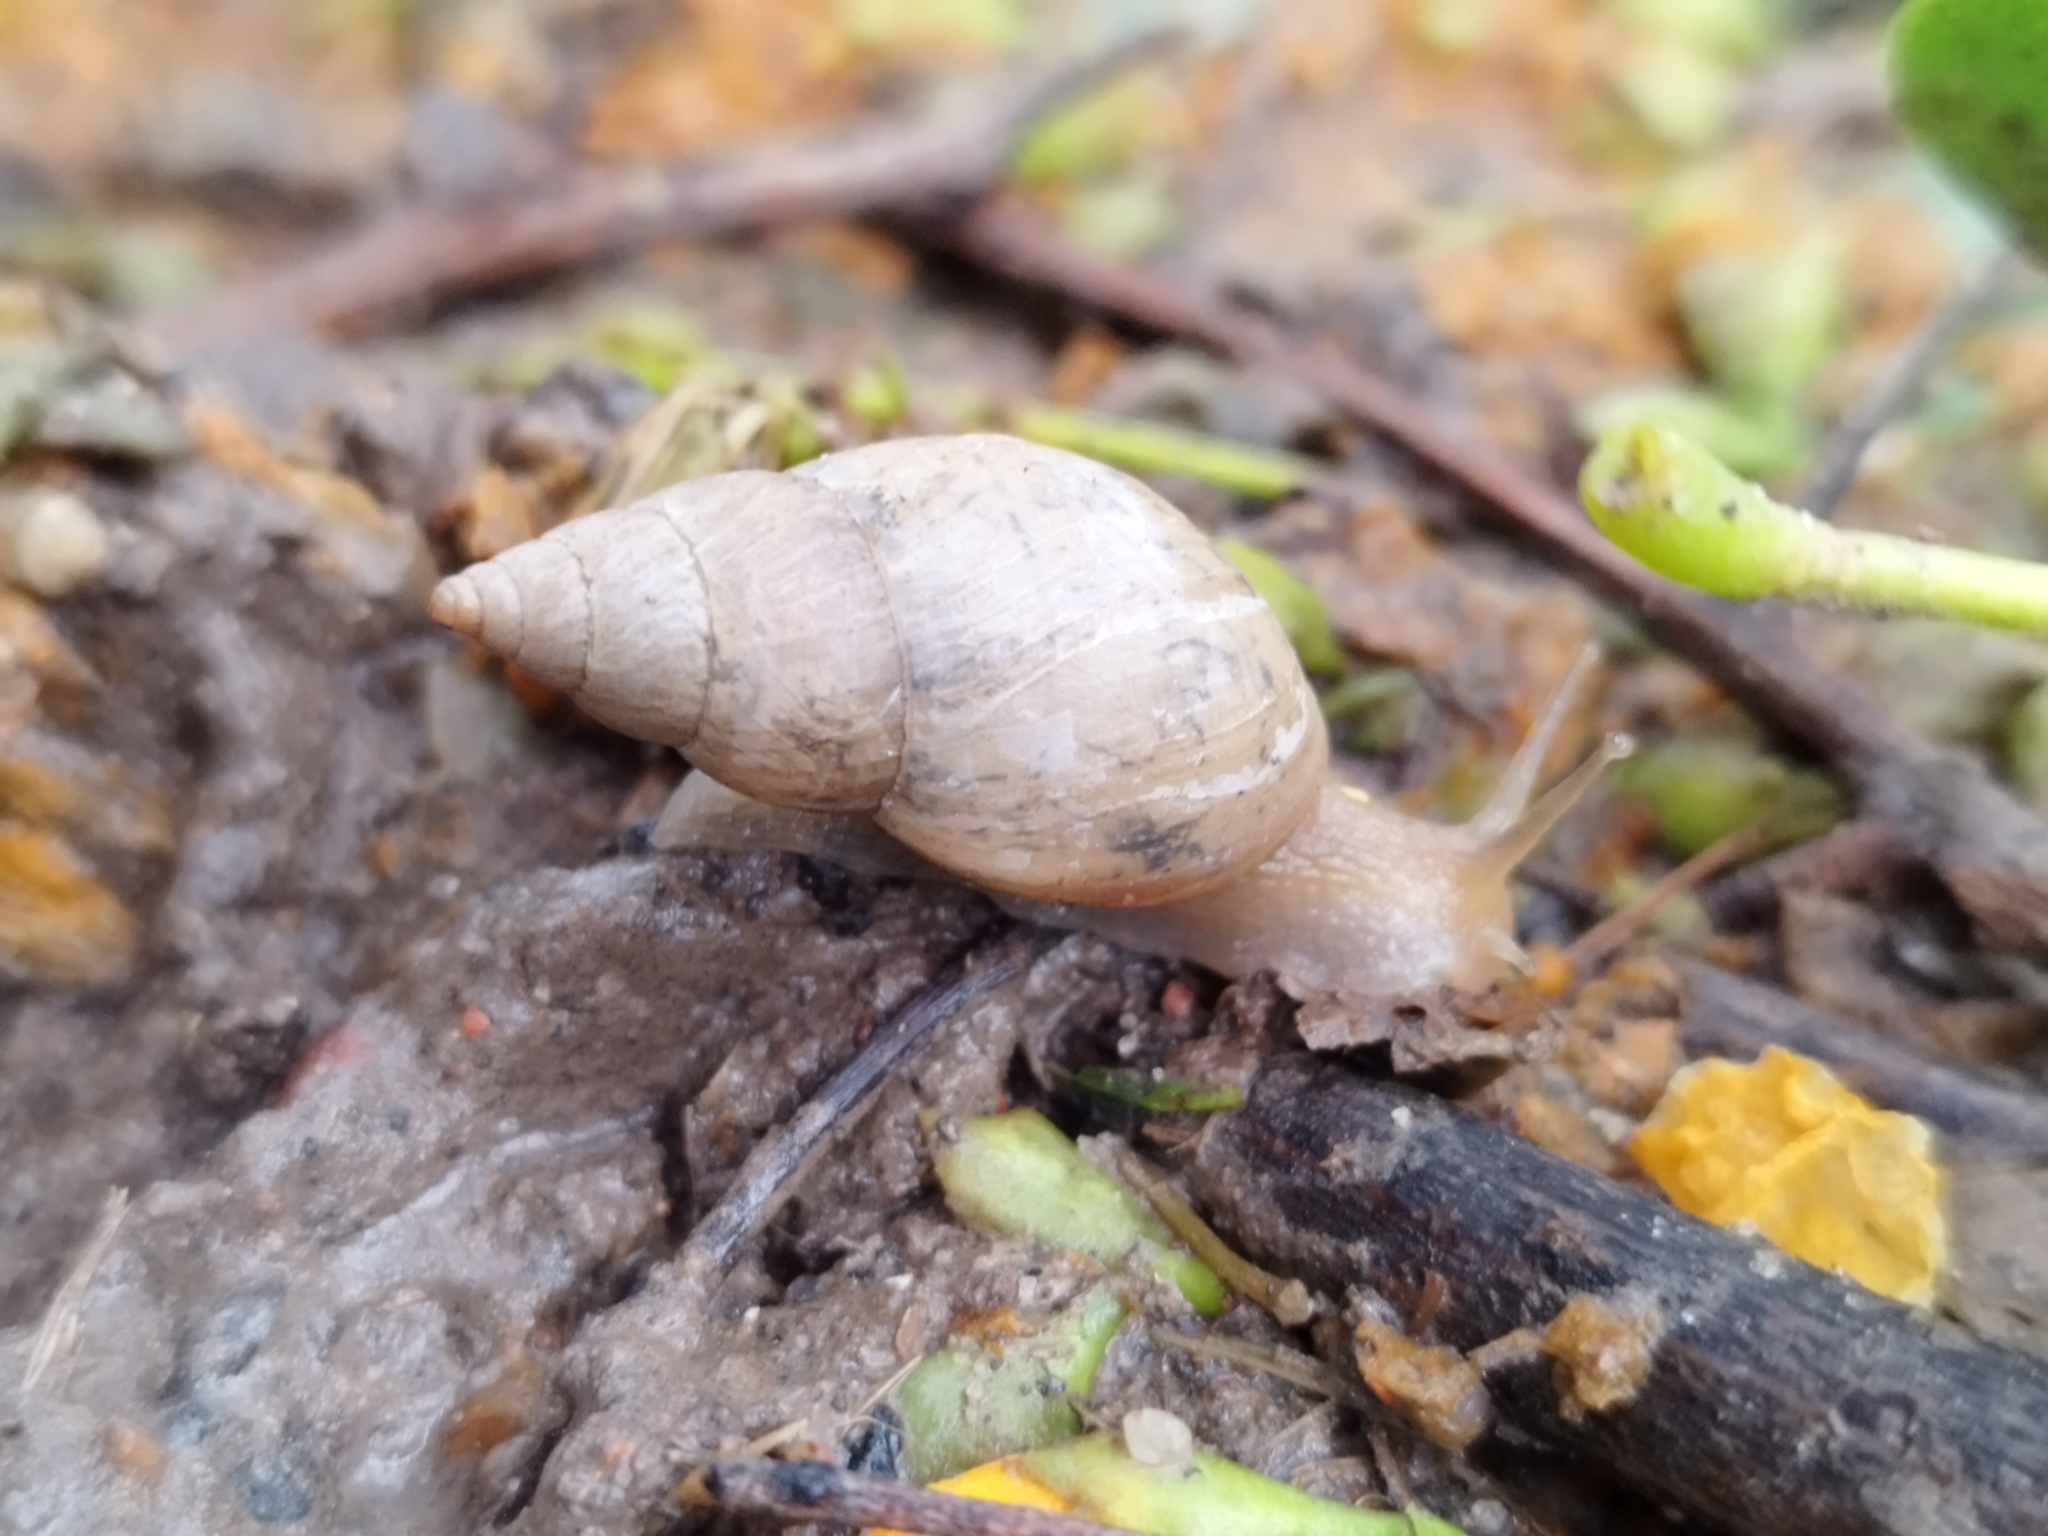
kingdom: Animalia
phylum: Mollusca
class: Gastropoda
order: Stylommatophora
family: Bulimulidae
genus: Bulimulus
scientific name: Bulimulus bonariensis
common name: Snail
